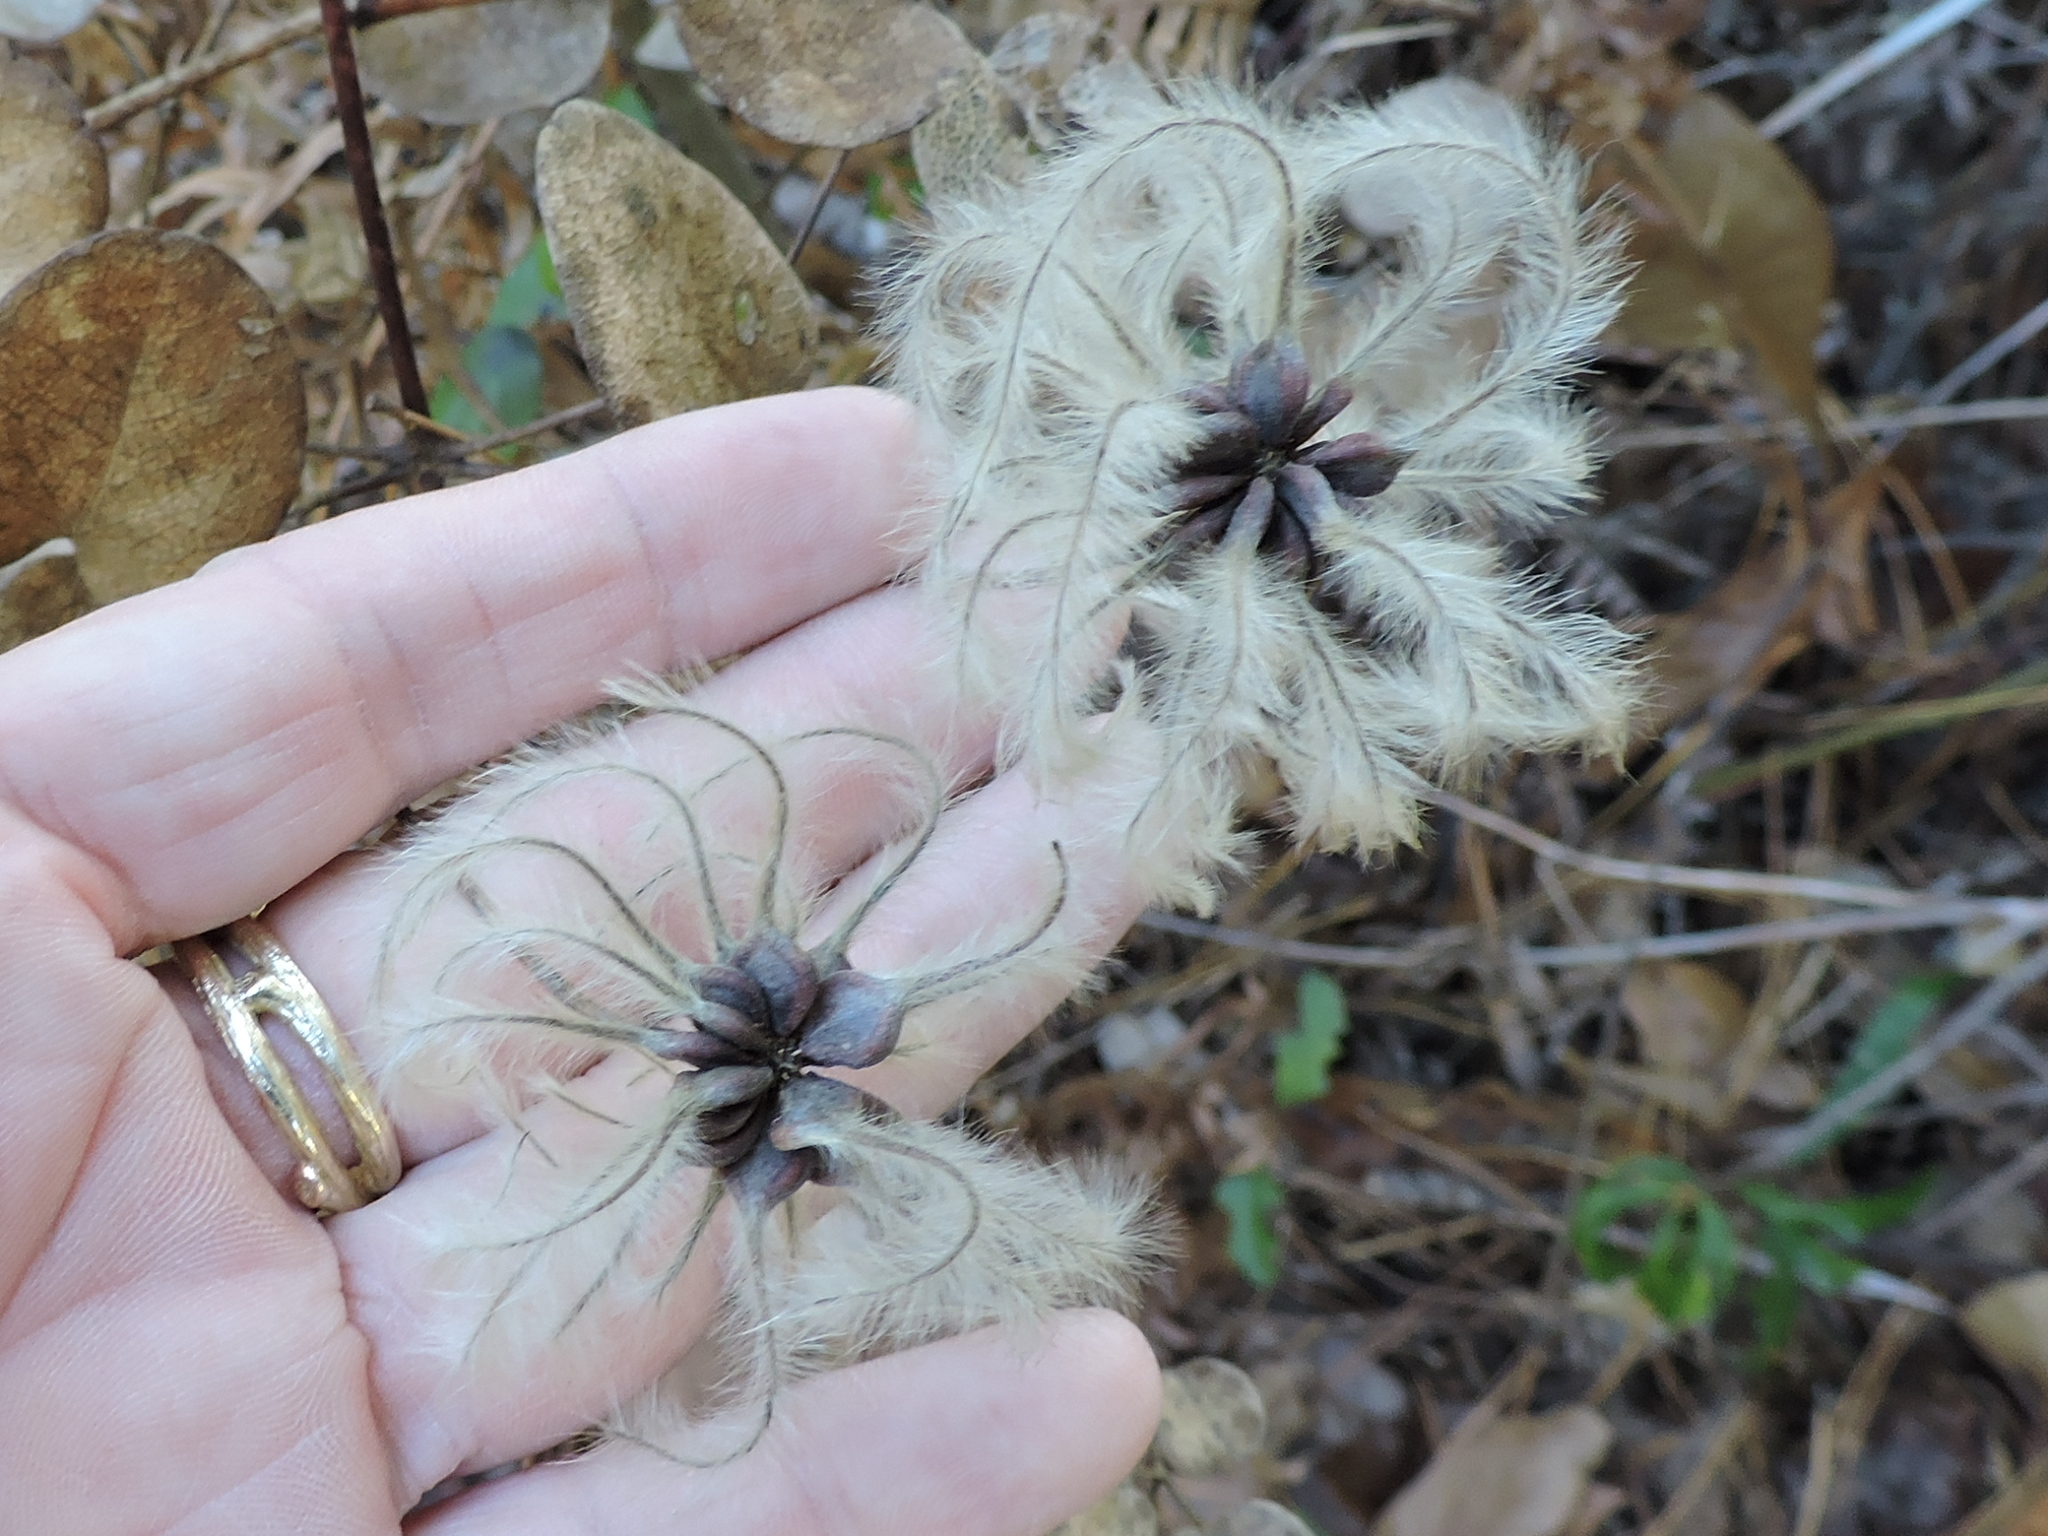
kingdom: Plantae
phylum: Tracheophyta
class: Magnoliopsida
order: Ranunculales
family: Ranunculaceae
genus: Clematis
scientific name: Clematis carrizoensis
